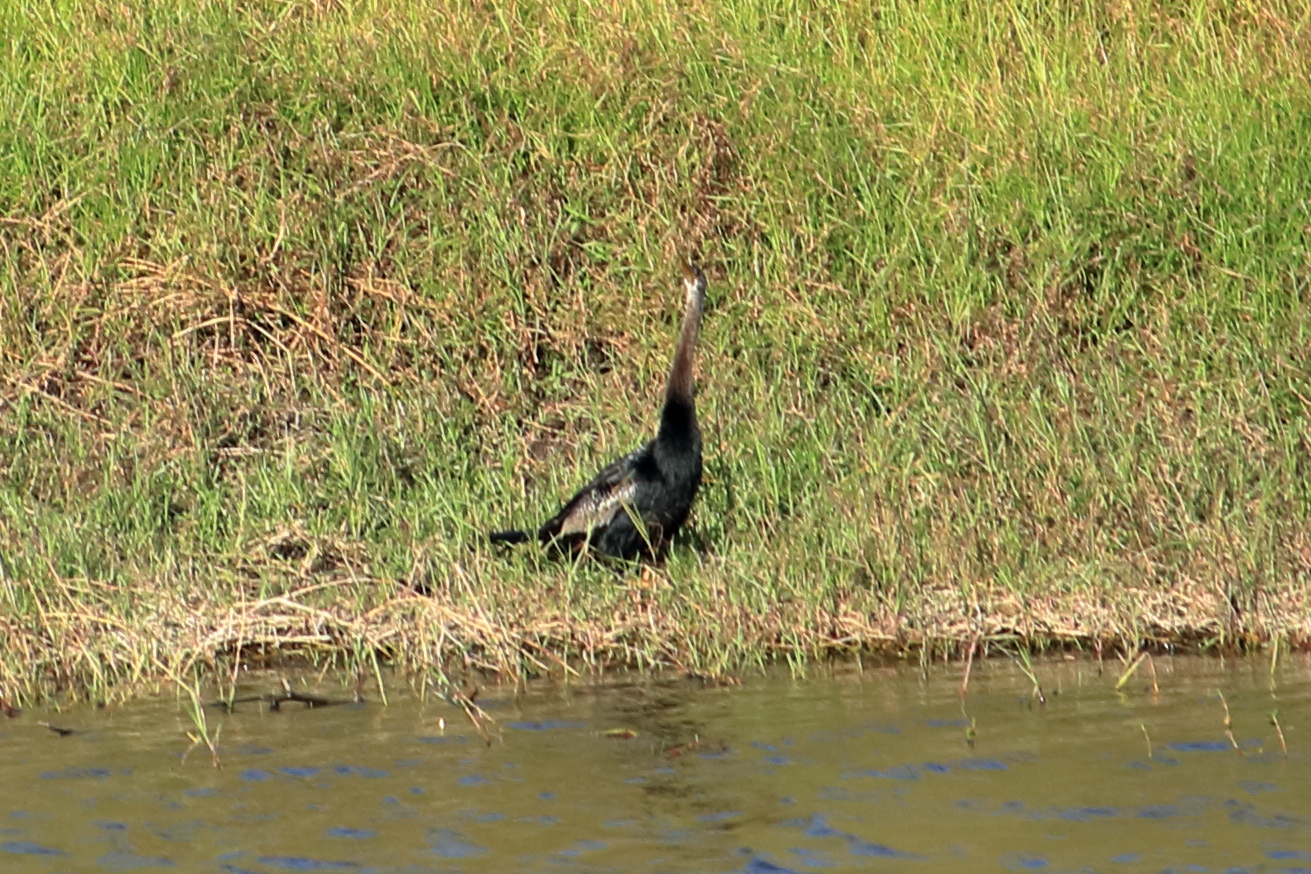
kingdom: Animalia
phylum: Chordata
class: Aves
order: Suliformes
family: Anhingidae
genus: Anhinga
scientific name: Anhinga anhinga
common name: Anhinga
